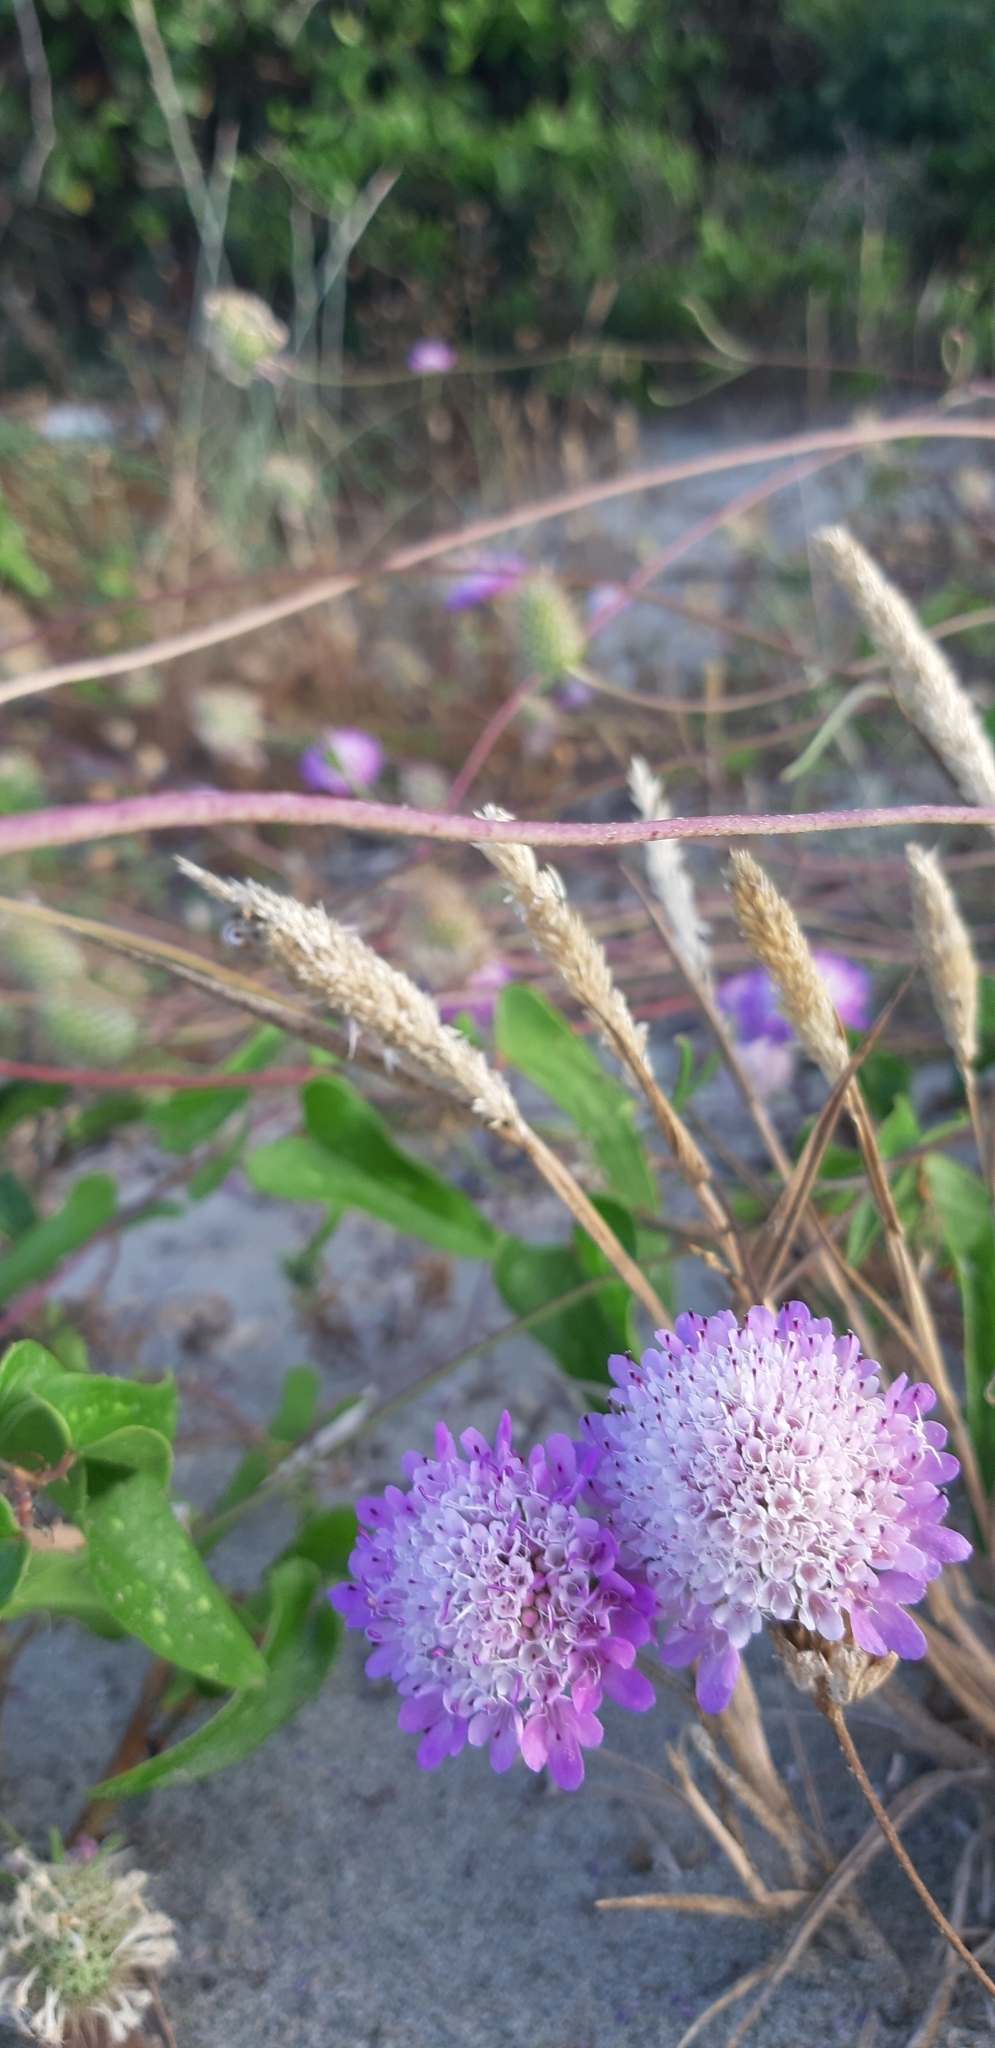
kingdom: Plantae
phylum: Tracheophyta
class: Magnoliopsida
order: Dipsacales
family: Caprifoliaceae
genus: Sixalix
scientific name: Sixalix atropurpurea
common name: Sweet scabious
